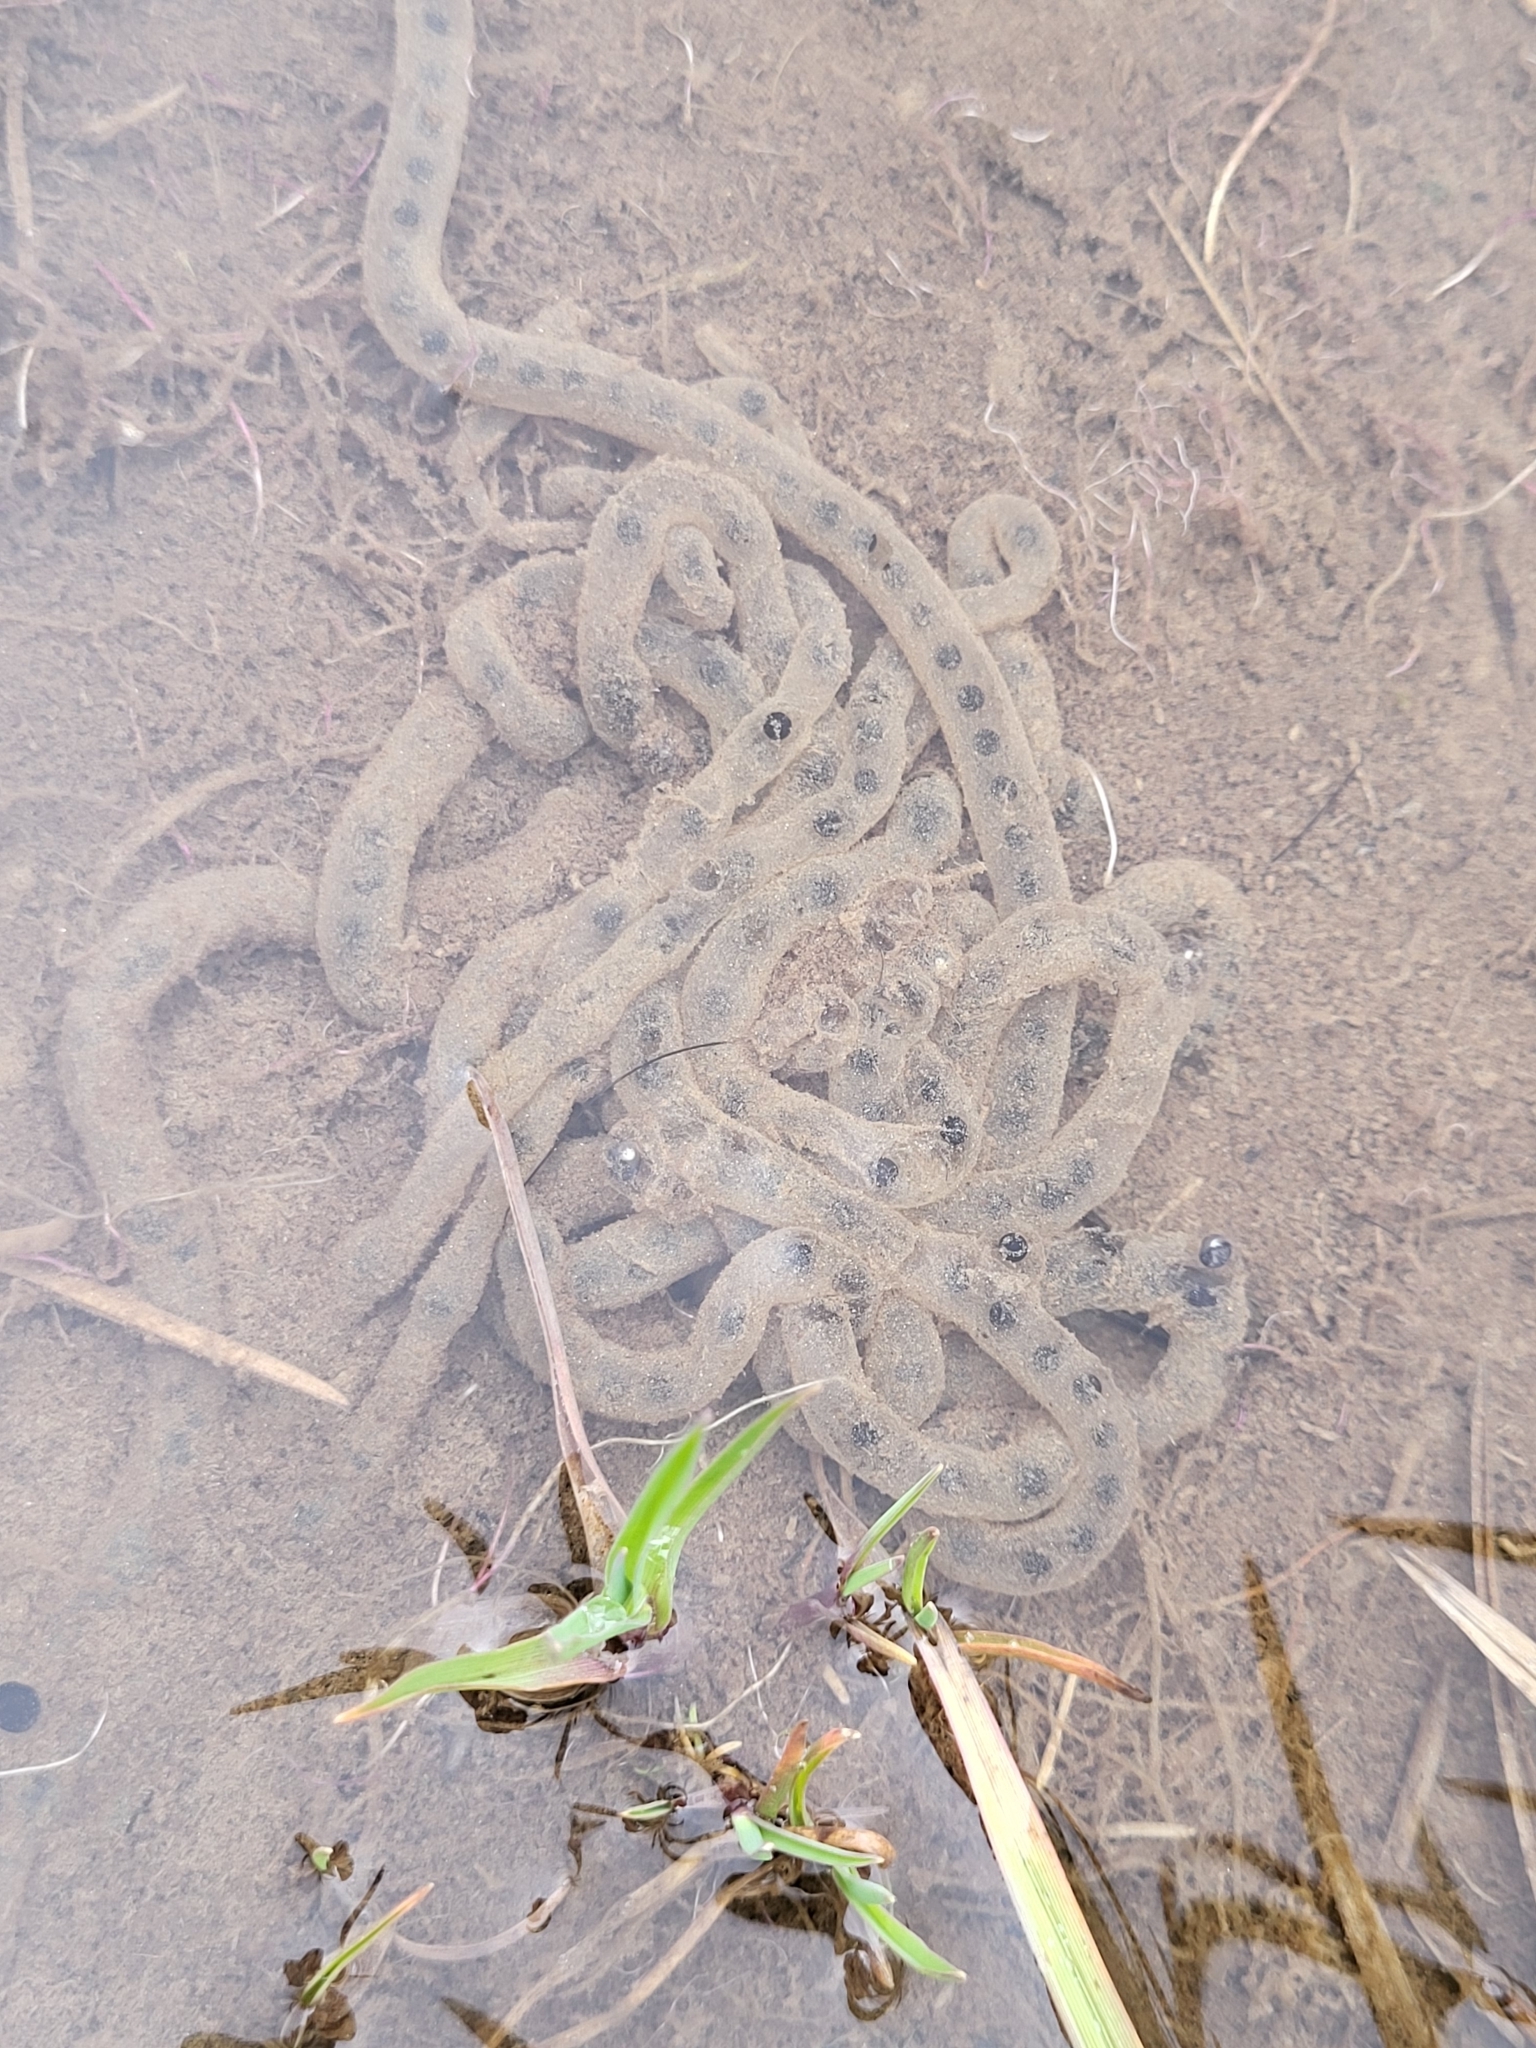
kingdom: Animalia
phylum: Chordata
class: Amphibia
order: Anura
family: Bufonidae
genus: Bufotes
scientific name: Bufotes viridis
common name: European green toad
